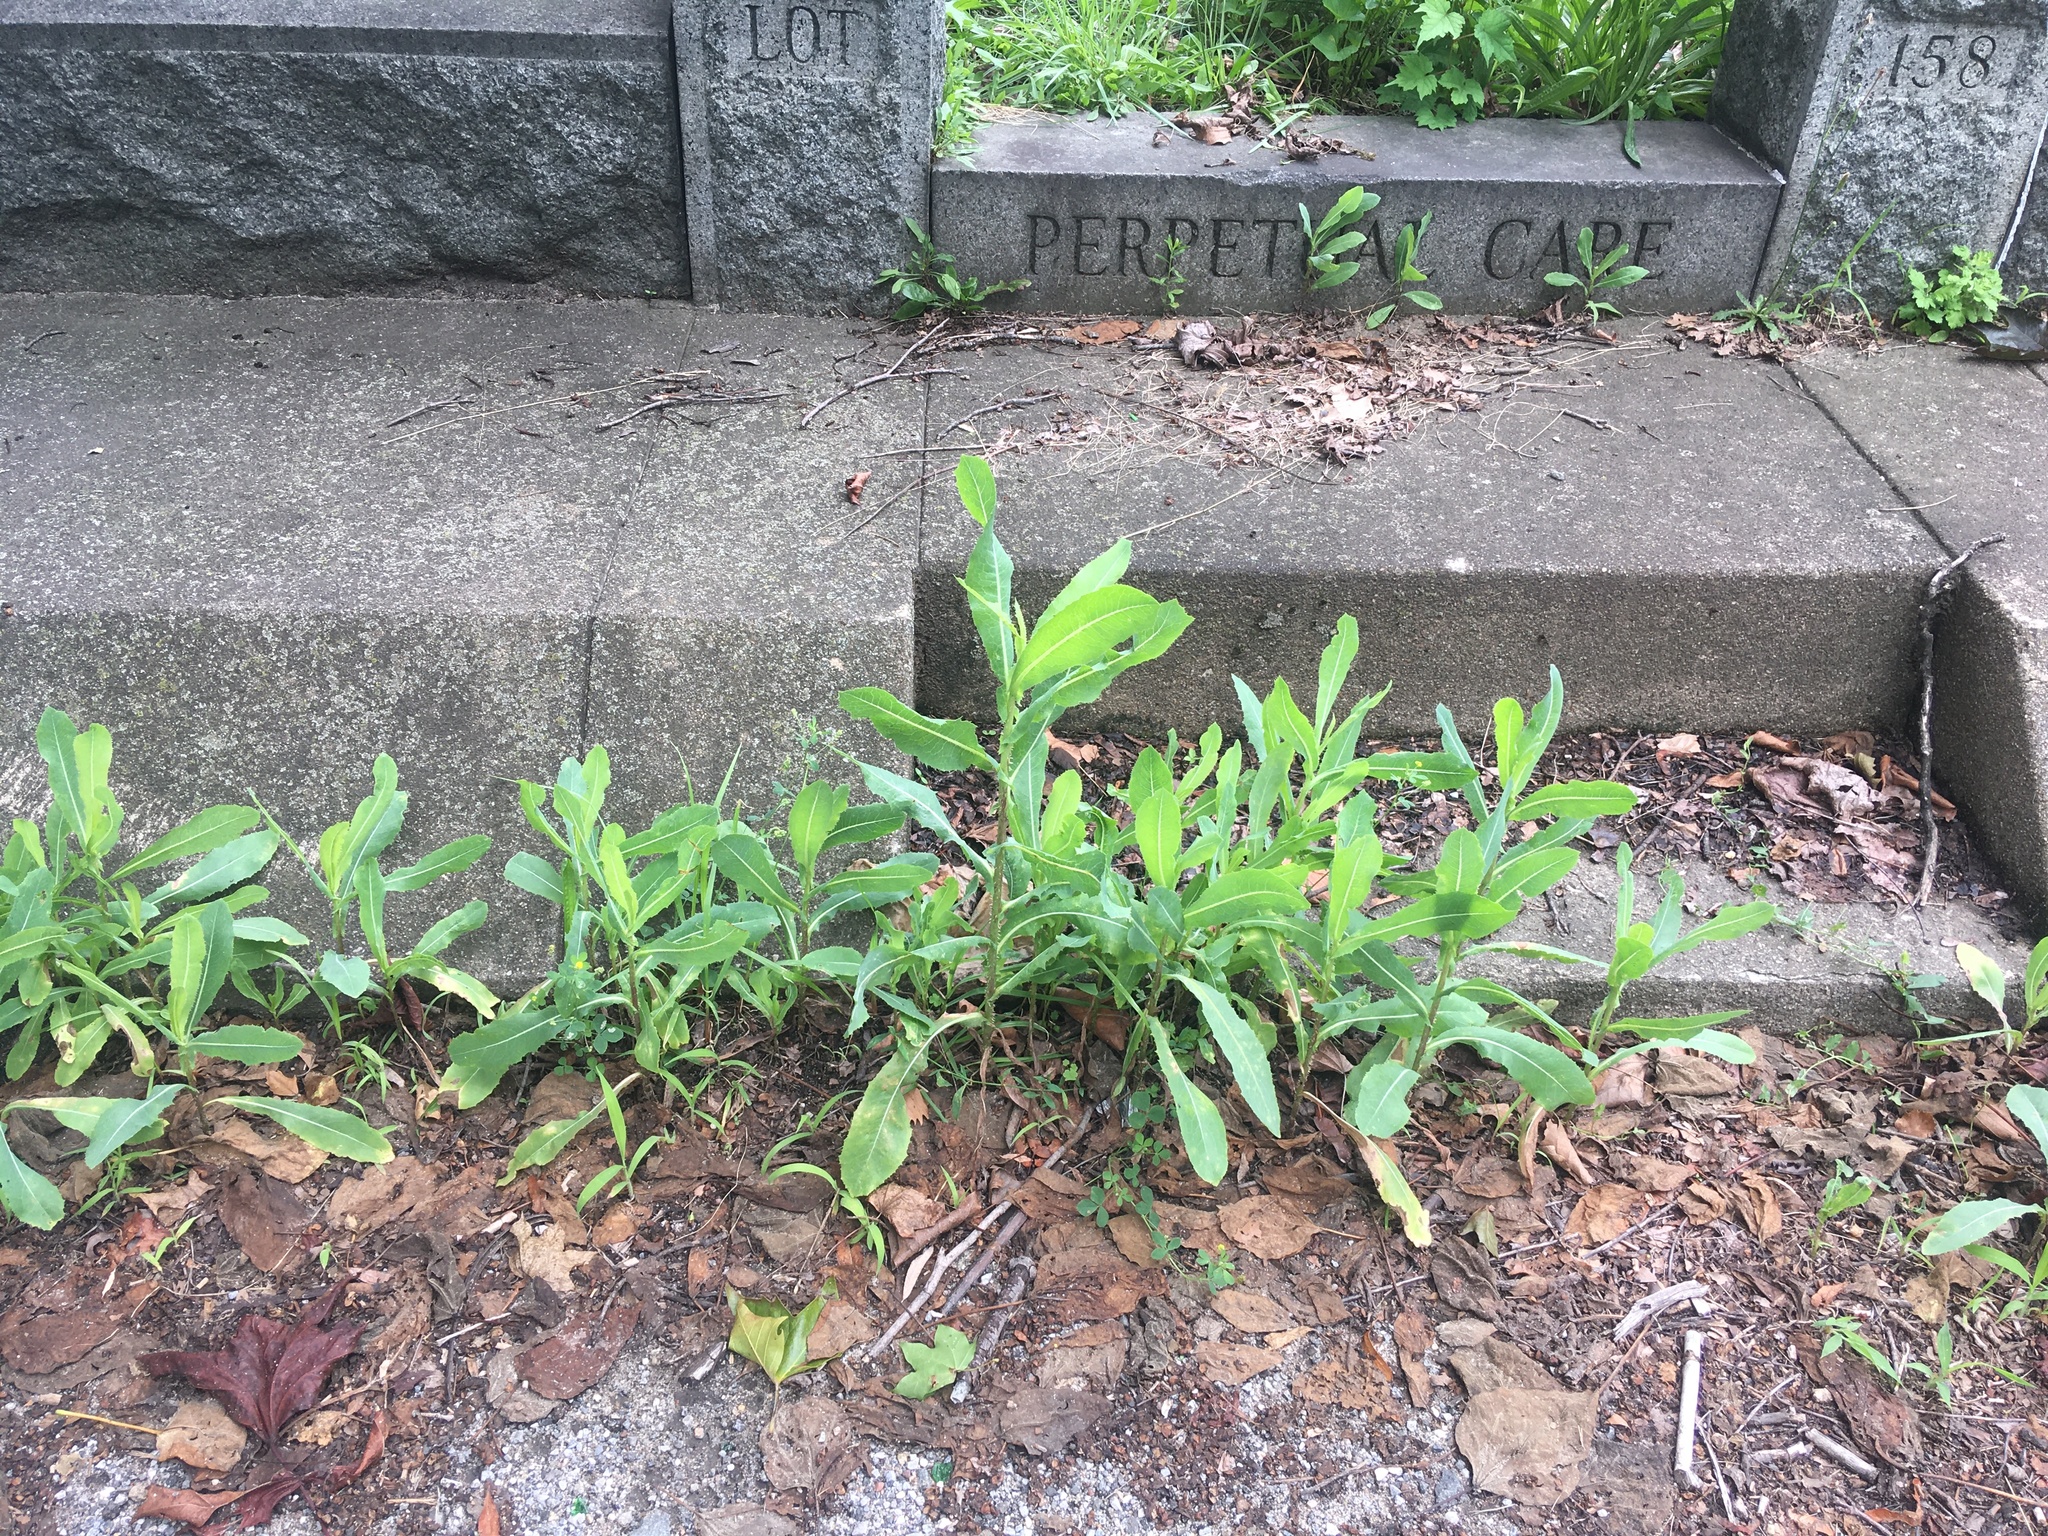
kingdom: Plantae
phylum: Tracheophyta
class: Magnoliopsida
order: Asterales
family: Asteraceae
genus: Lactuca
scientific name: Lactuca serriola
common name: Prickly lettuce
